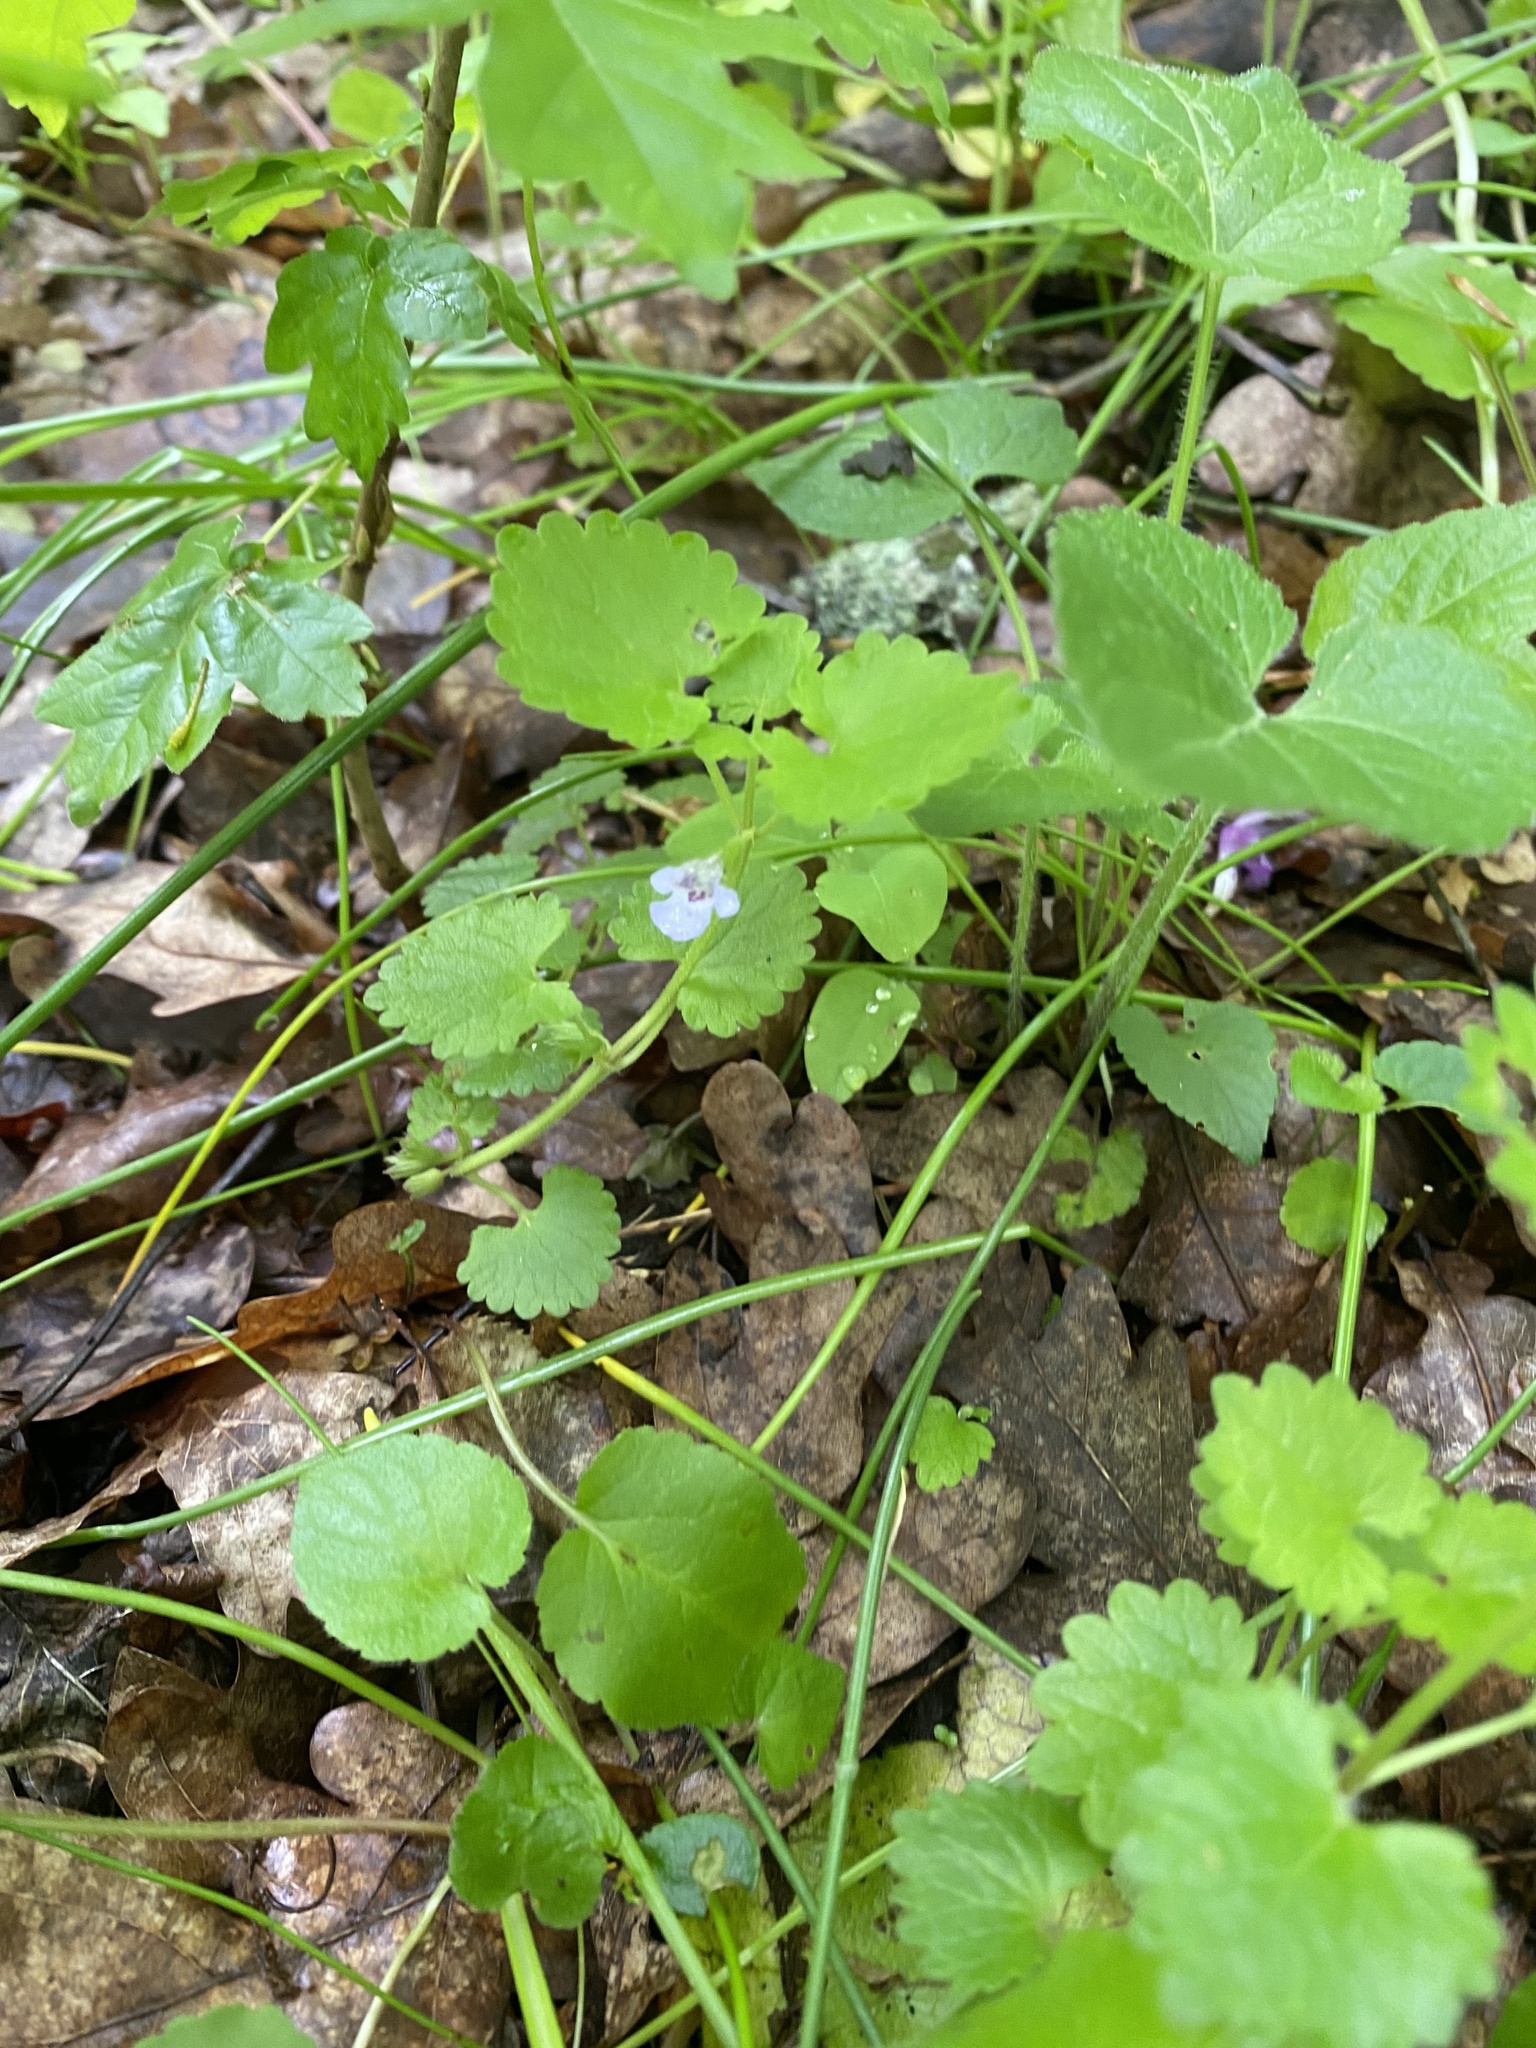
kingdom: Plantae
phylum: Tracheophyta
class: Magnoliopsida
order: Lamiales
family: Lamiaceae
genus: Glechoma
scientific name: Glechoma hederacea
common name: Ground ivy
